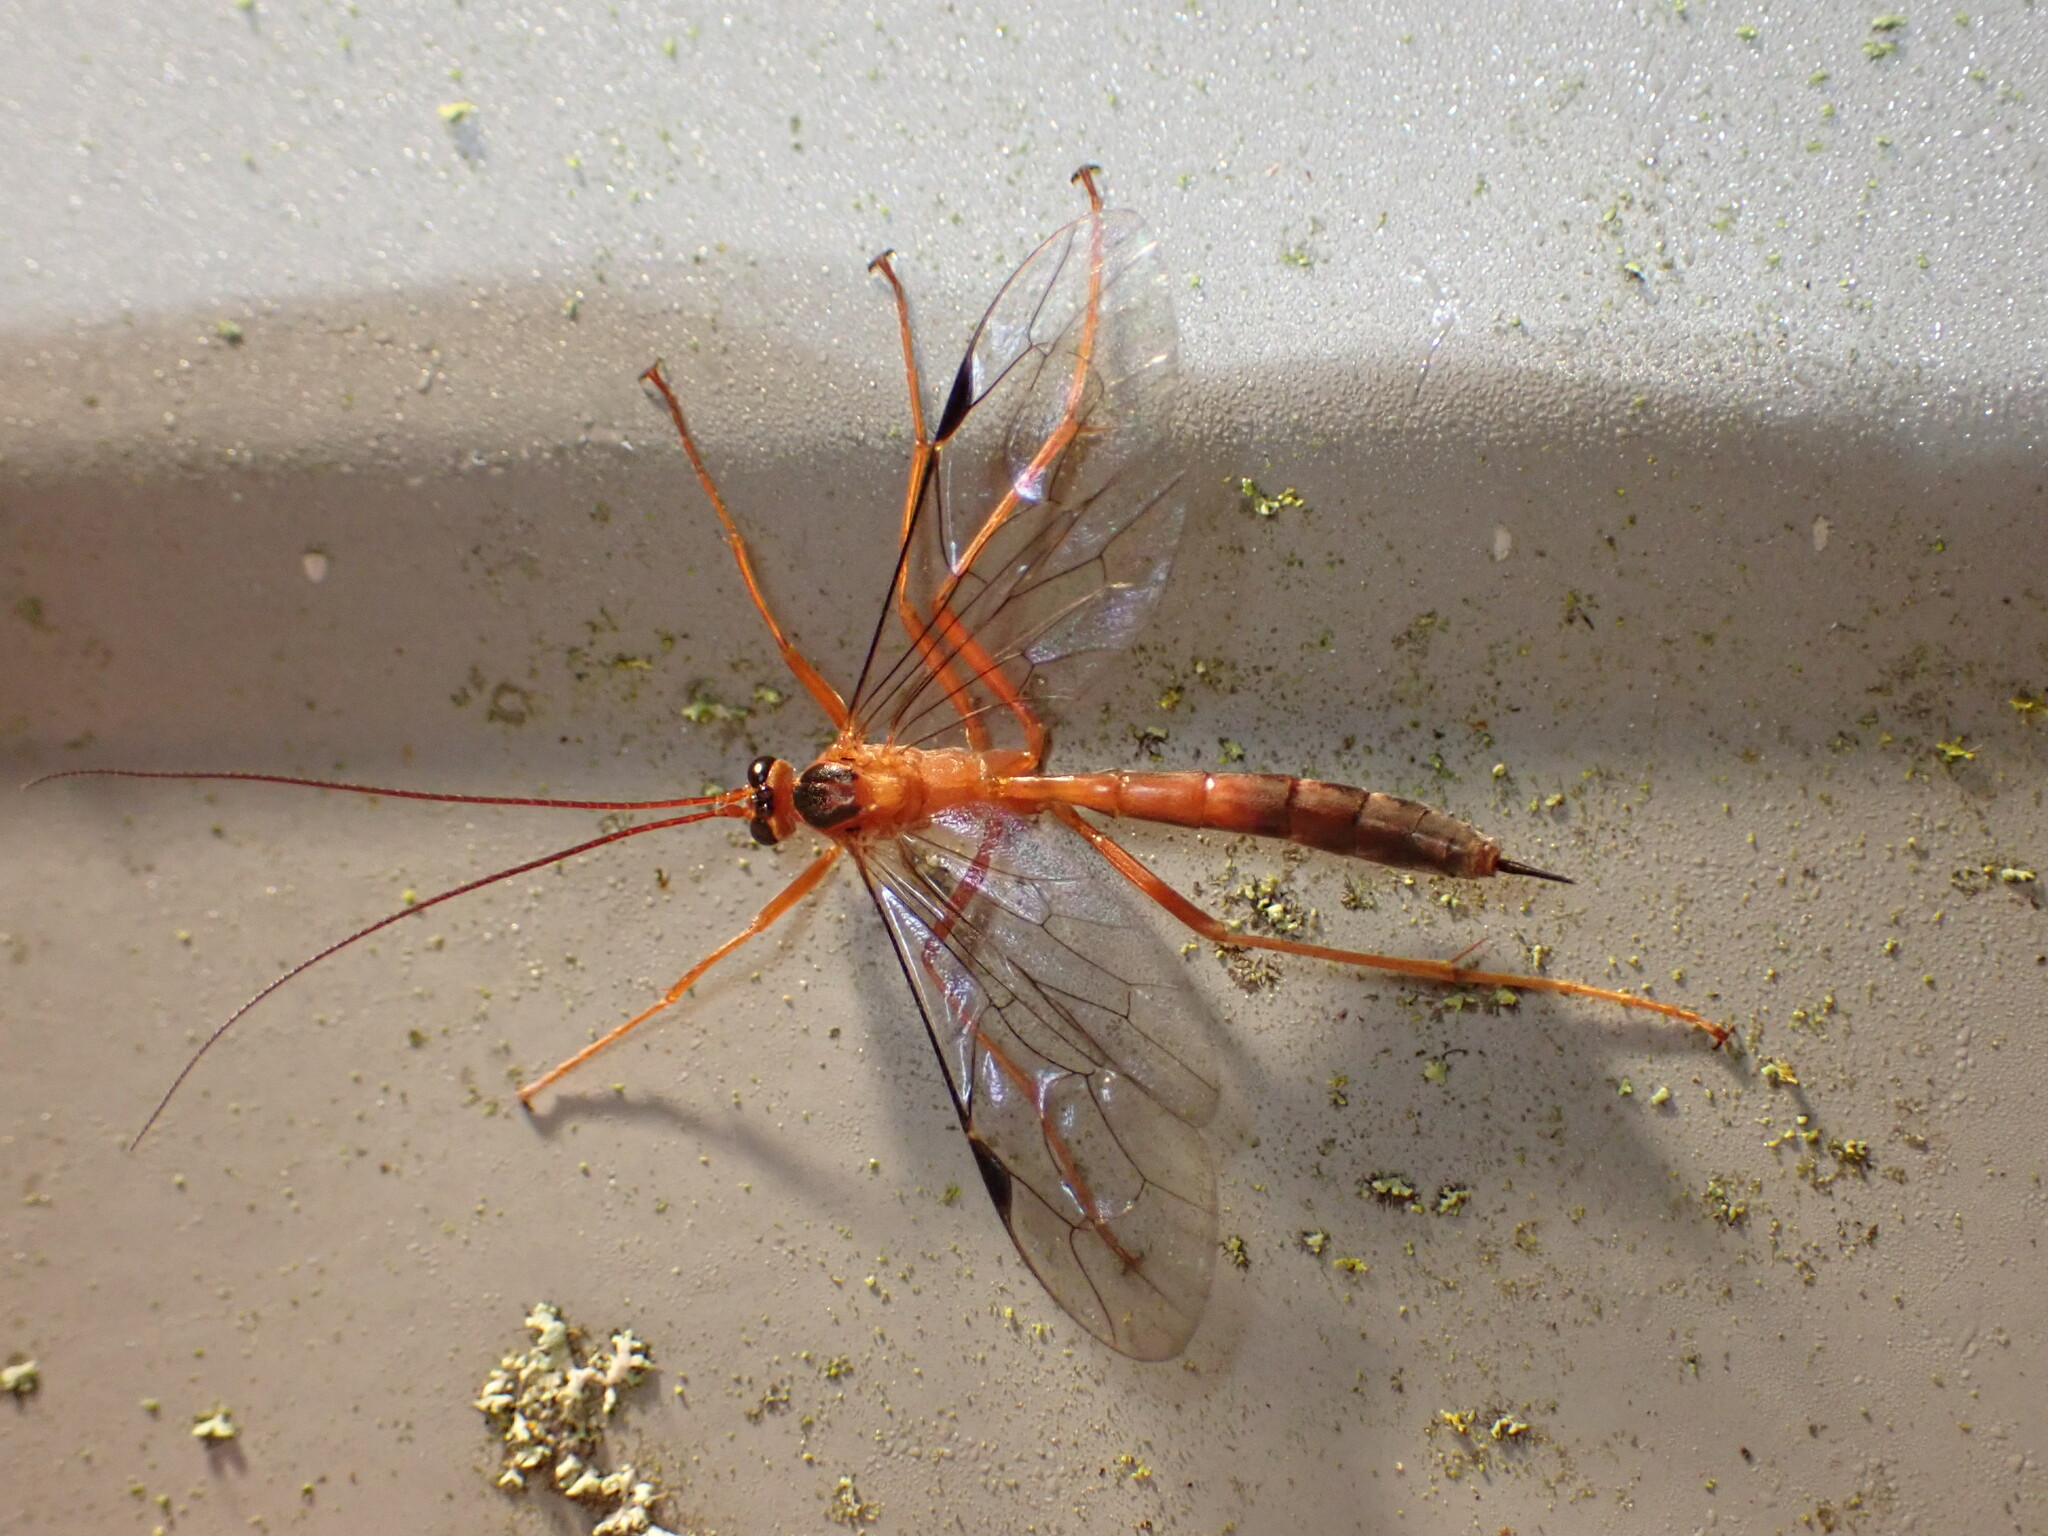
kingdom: Animalia
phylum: Arthropoda
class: Insecta
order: Hymenoptera
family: Ichneumonidae
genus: Netelia
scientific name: Netelia ephippiata
